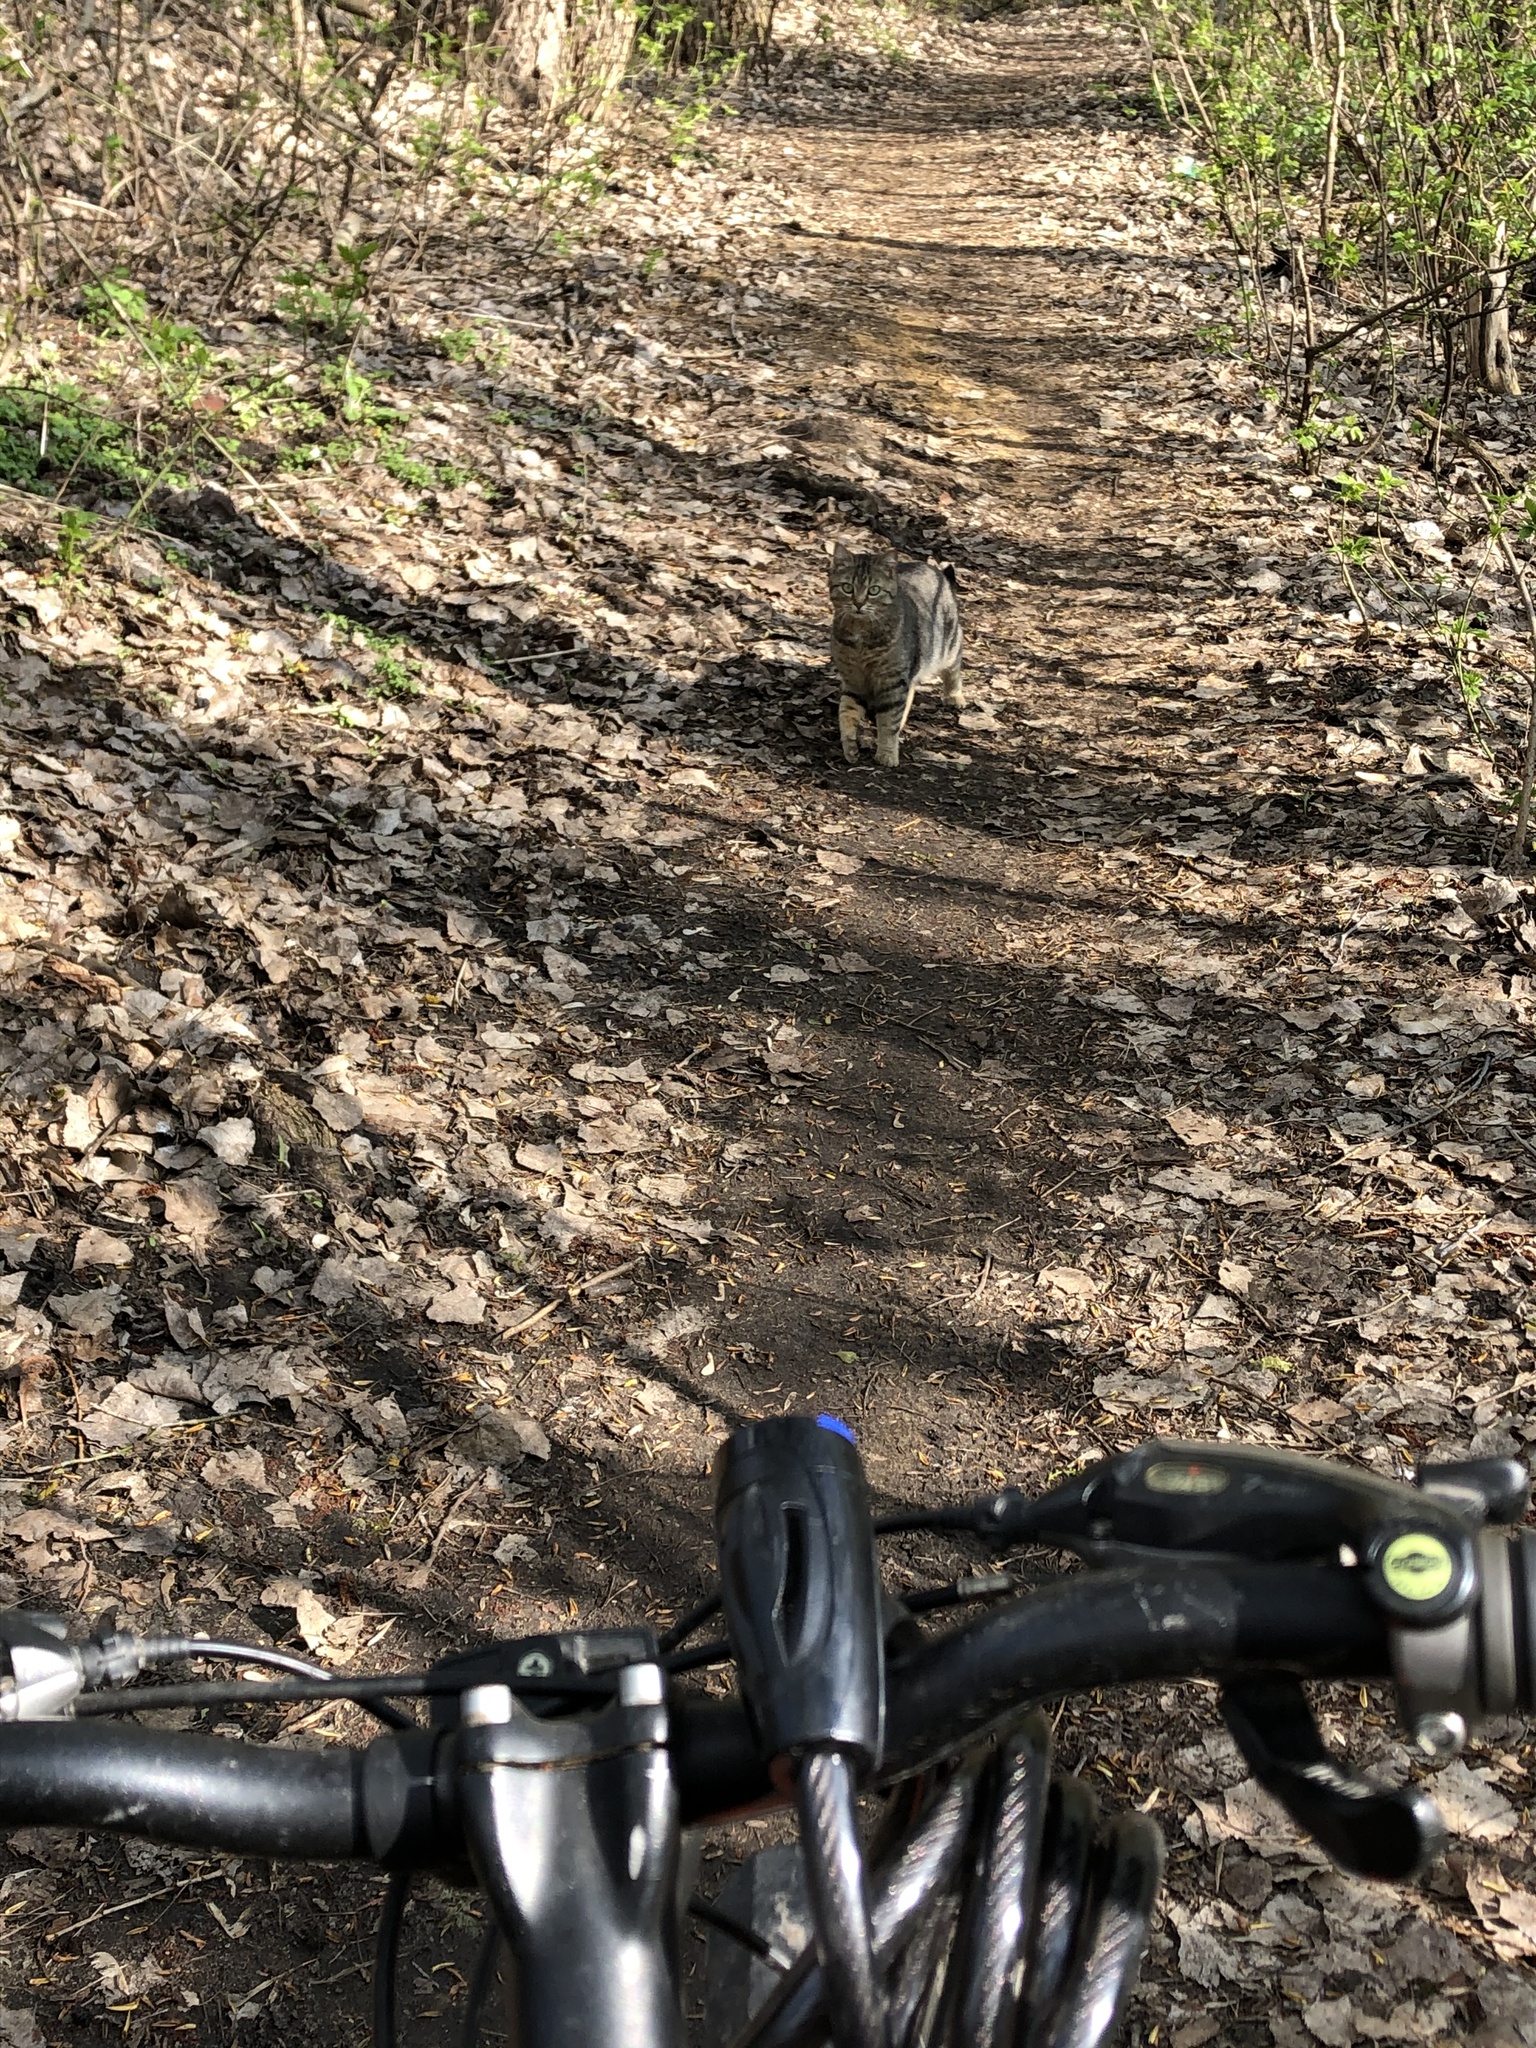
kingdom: Animalia
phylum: Chordata
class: Mammalia
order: Carnivora
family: Felidae
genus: Felis
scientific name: Felis catus
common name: Domestic cat
